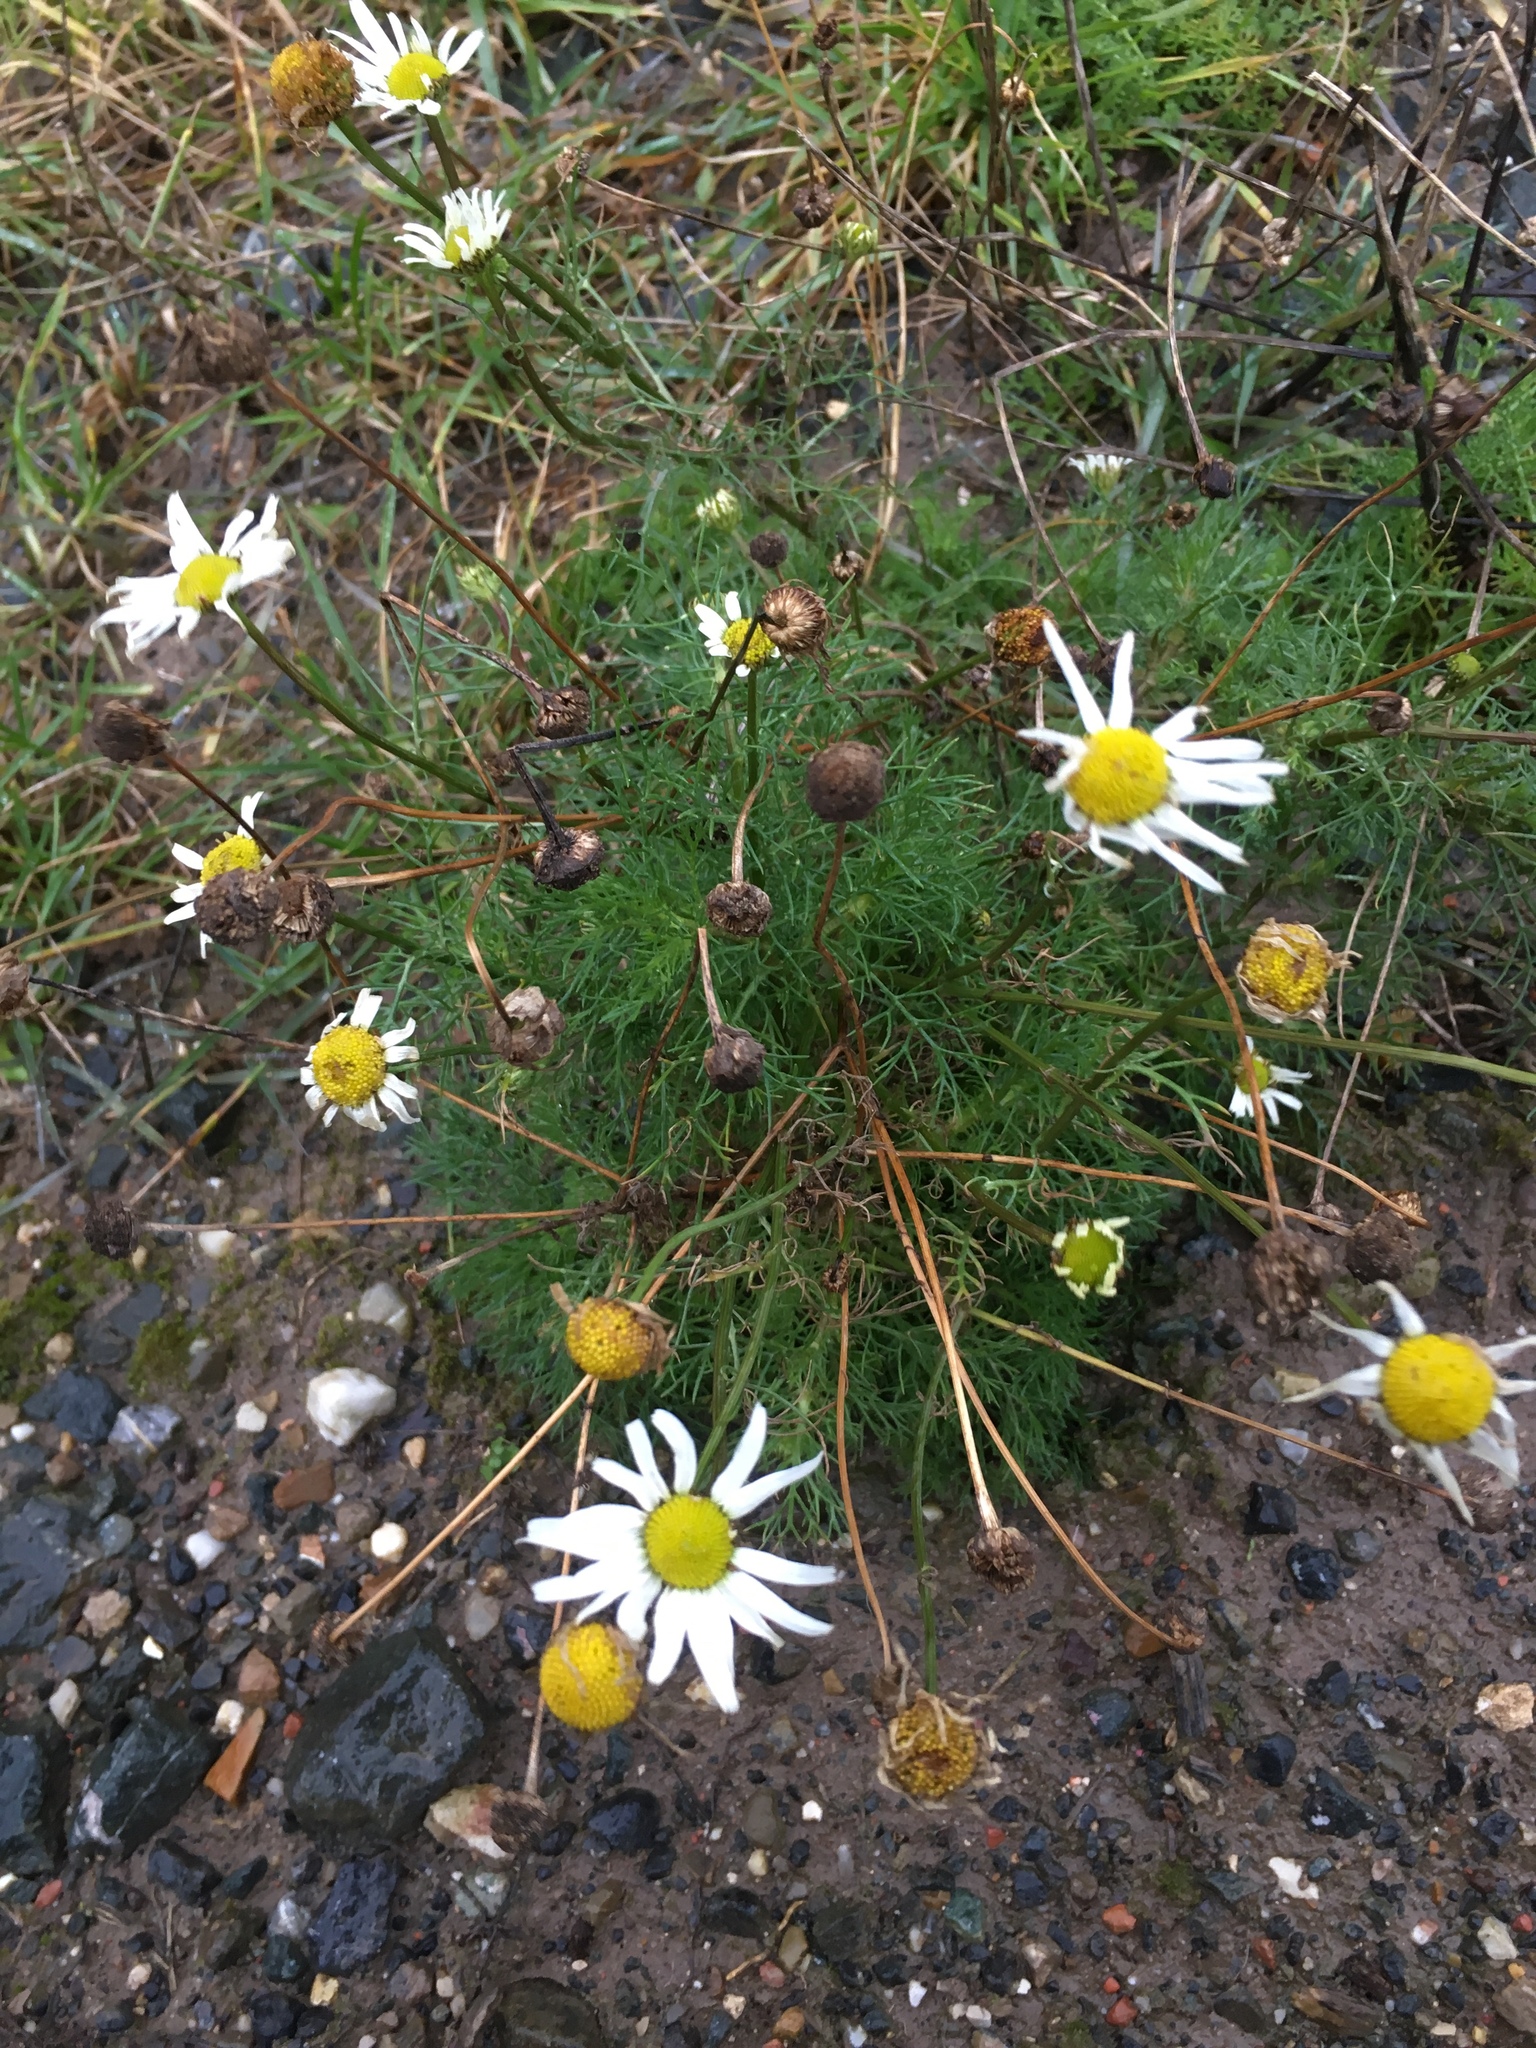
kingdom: Plantae
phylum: Tracheophyta
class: Magnoliopsida
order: Asterales
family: Asteraceae
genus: Tripleurospermum
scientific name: Tripleurospermum inodorum
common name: Scentless mayweed
